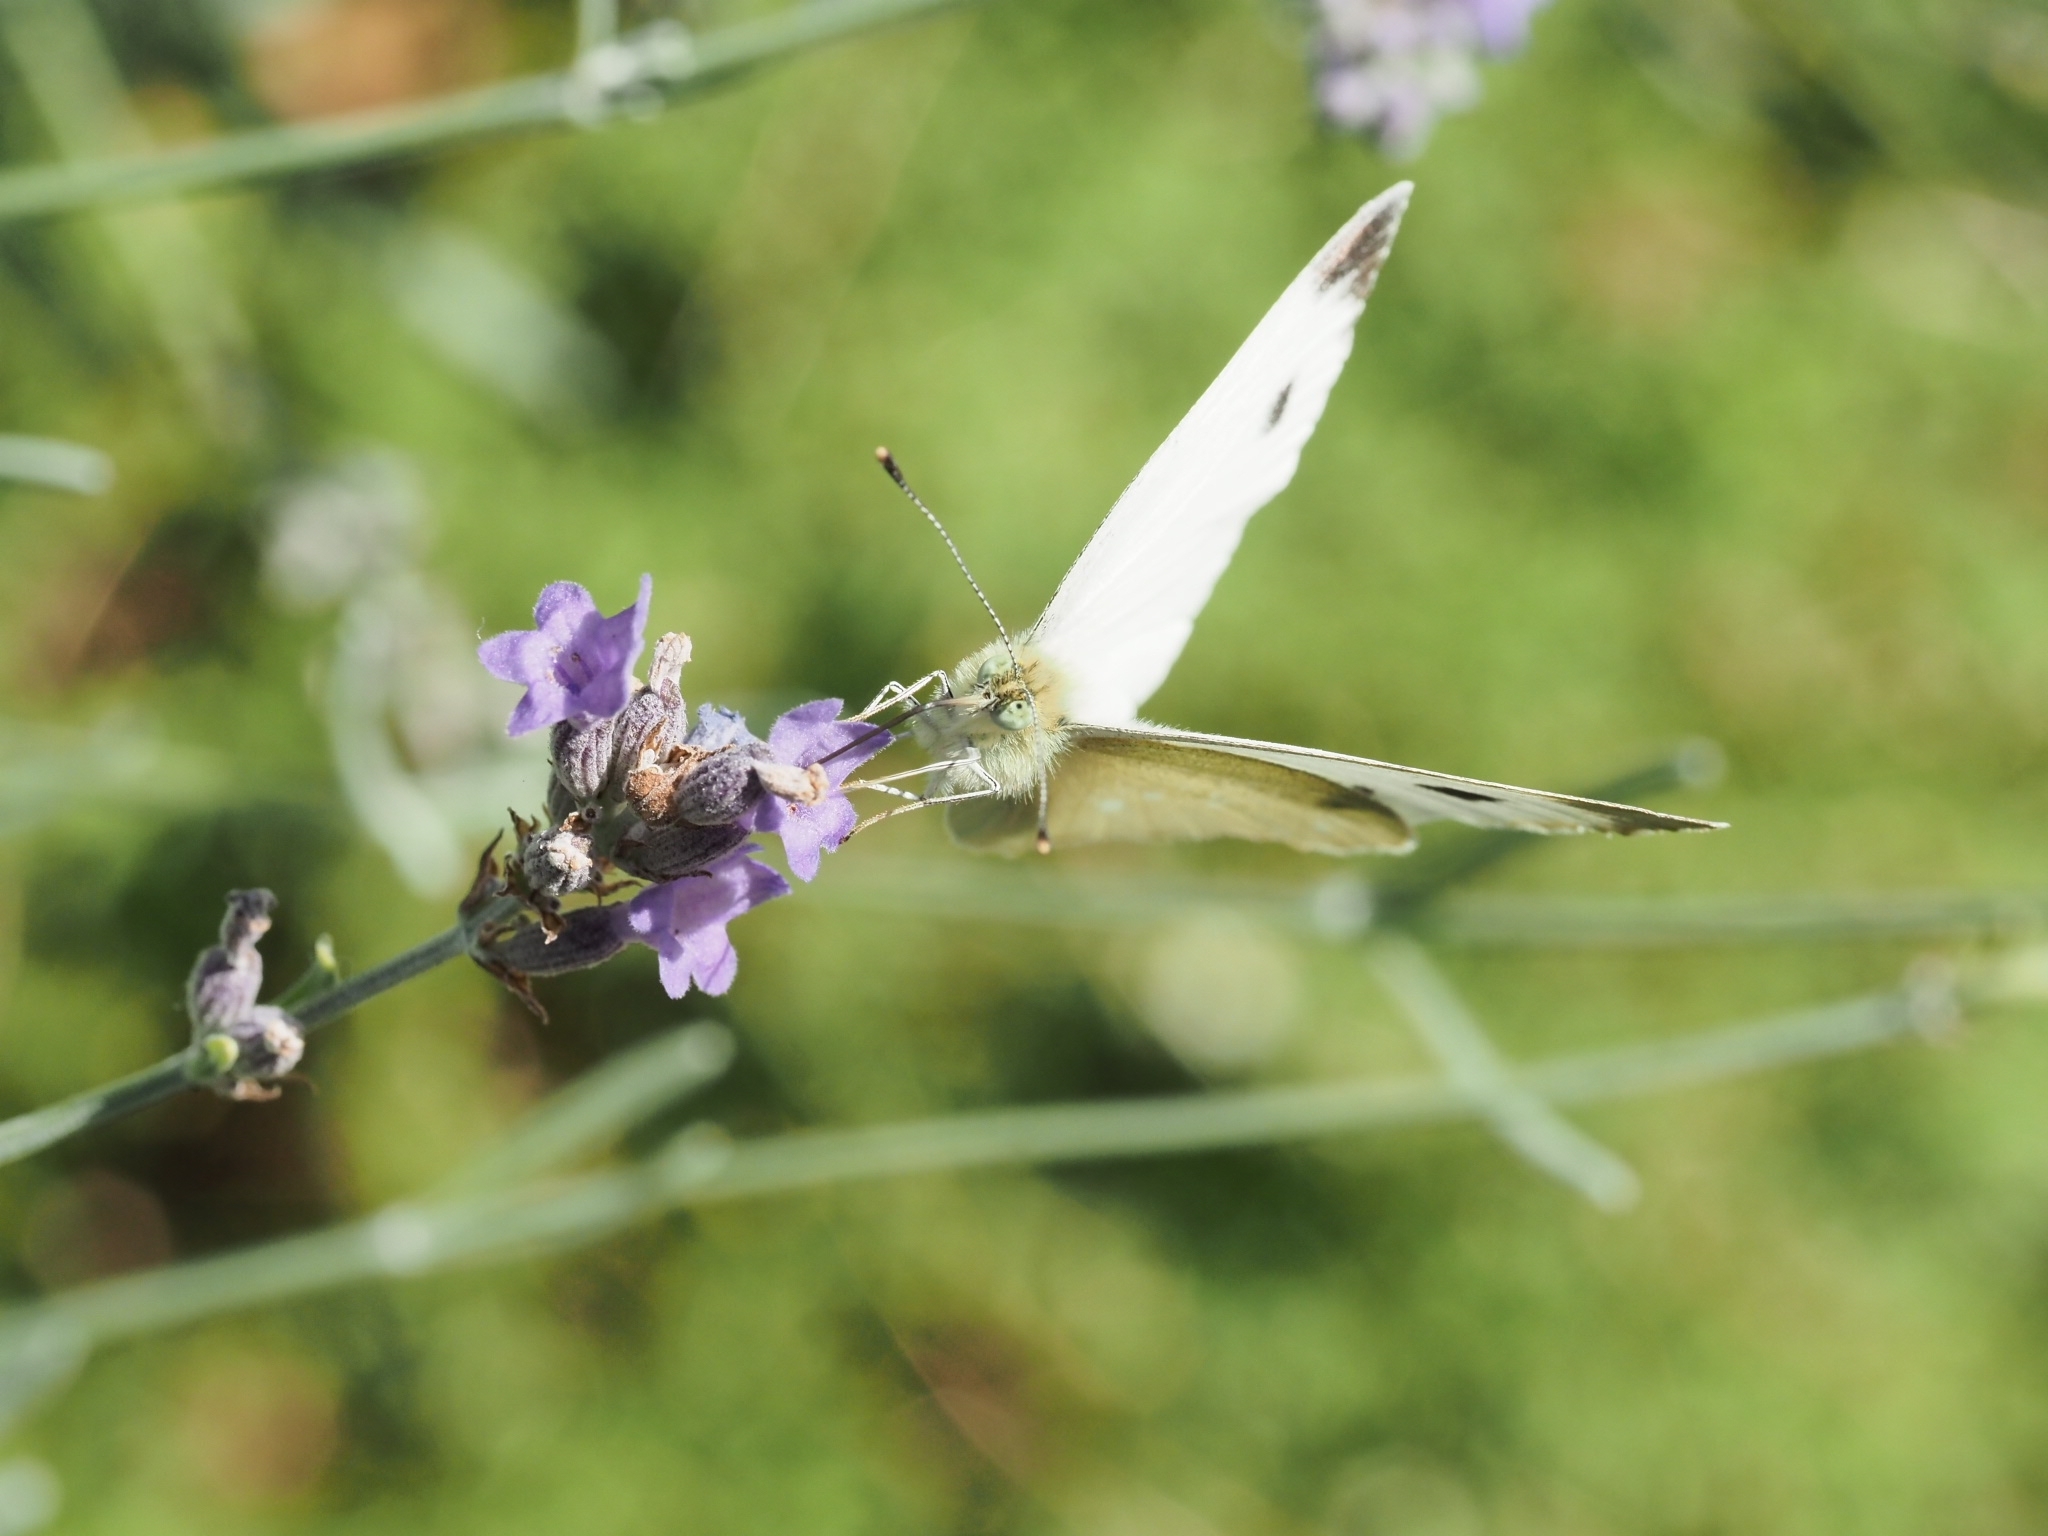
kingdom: Animalia
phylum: Arthropoda
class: Insecta
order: Lepidoptera
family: Pieridae
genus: Pieris
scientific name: Pieris mannii
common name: Southern small white
